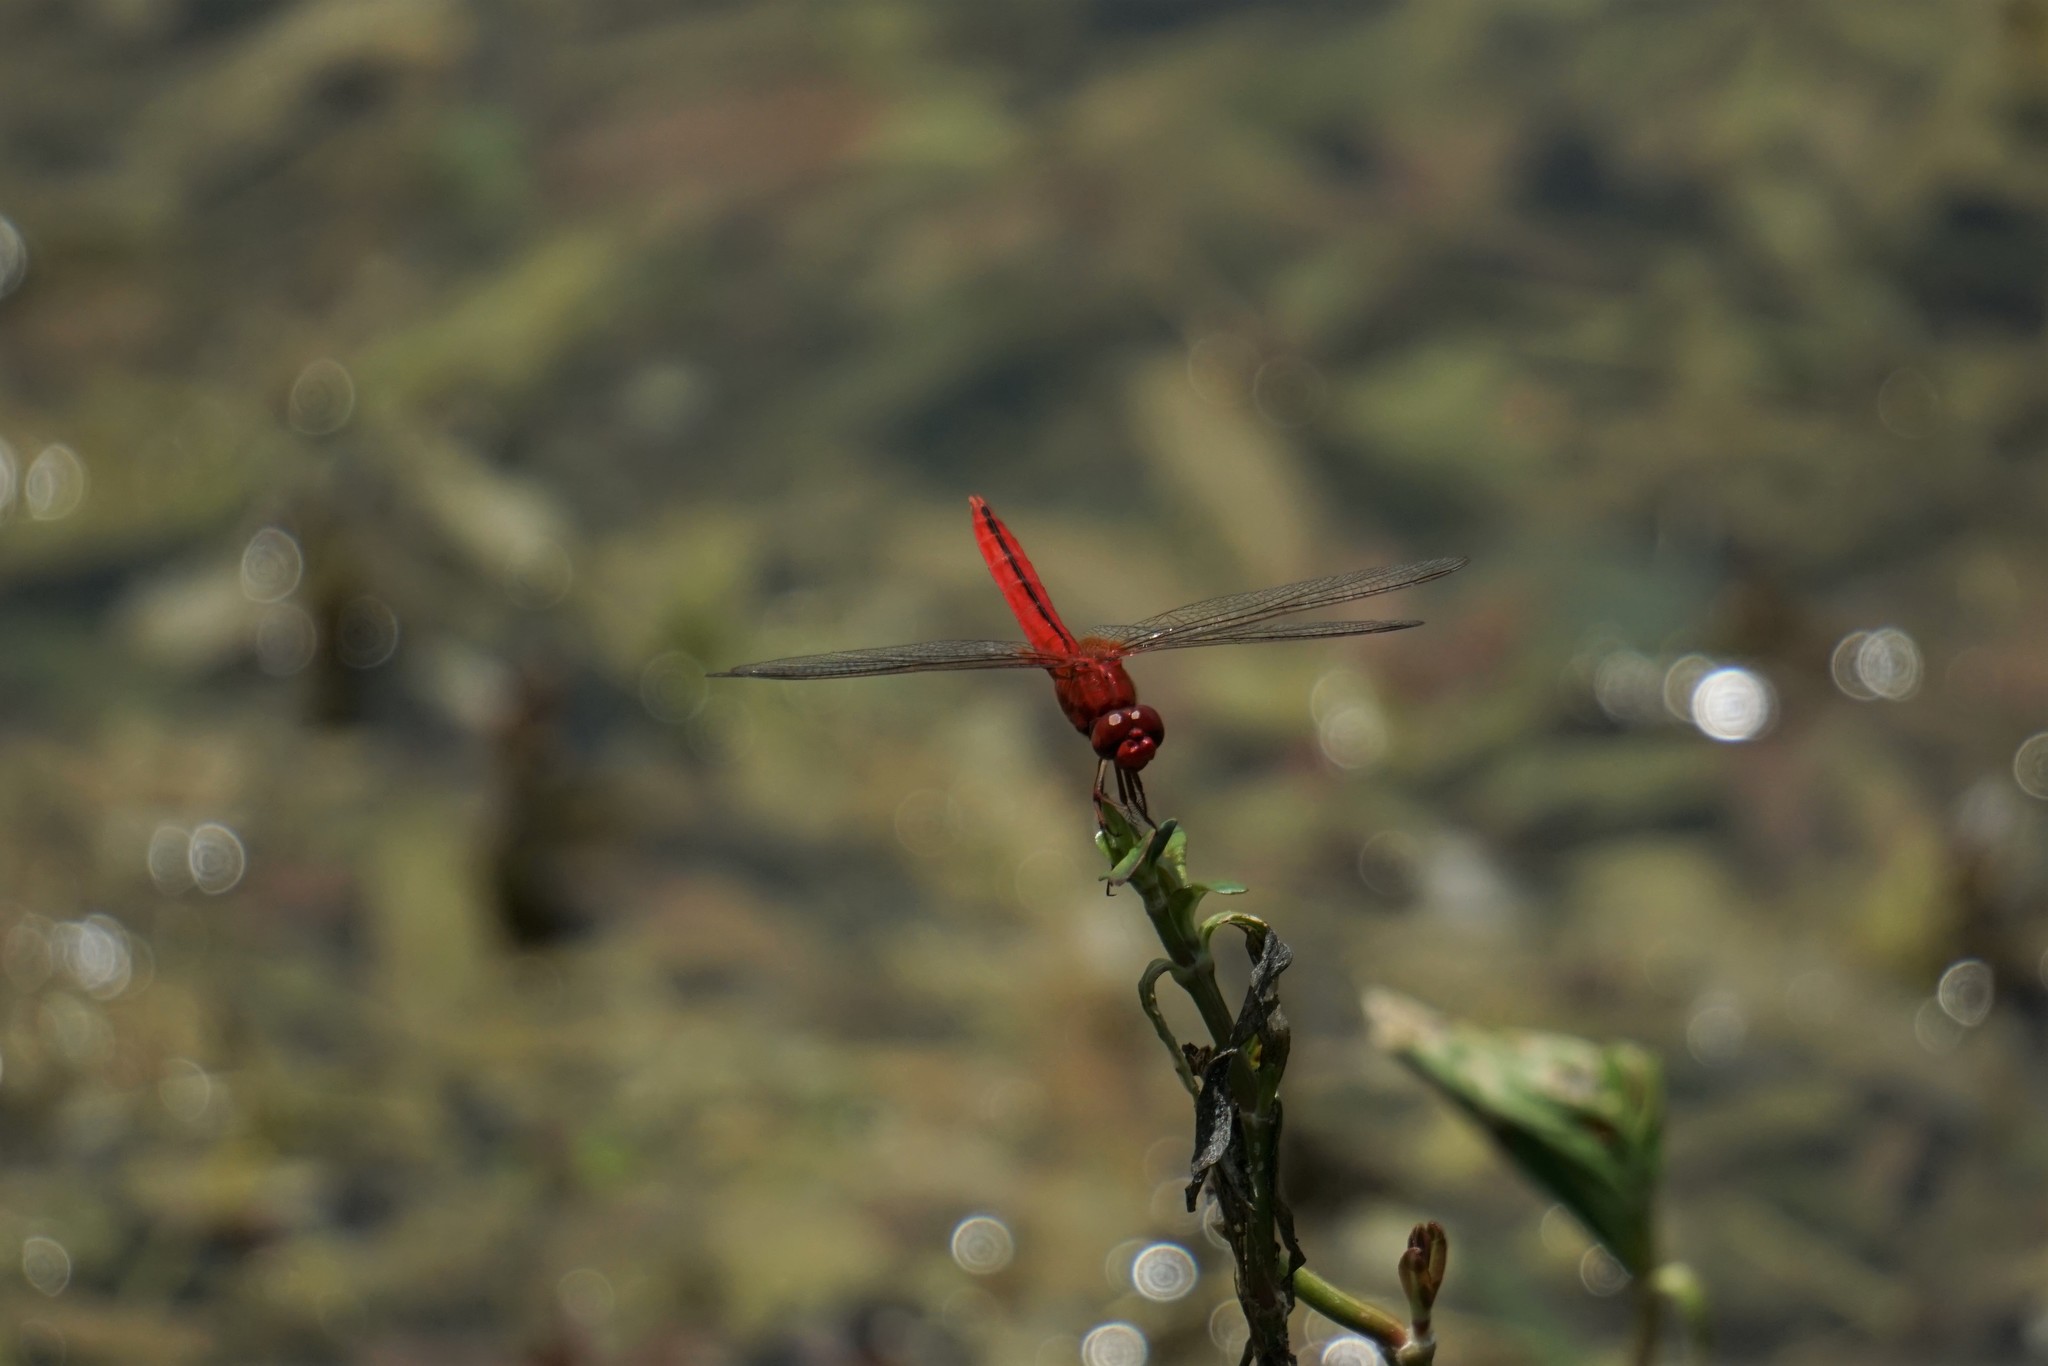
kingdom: Animalia
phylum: Arthropoda
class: Insecta
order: Odonata
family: Libellulidae
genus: Crocothemis
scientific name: Crocothemis servilia
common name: Scarlet skimmer
